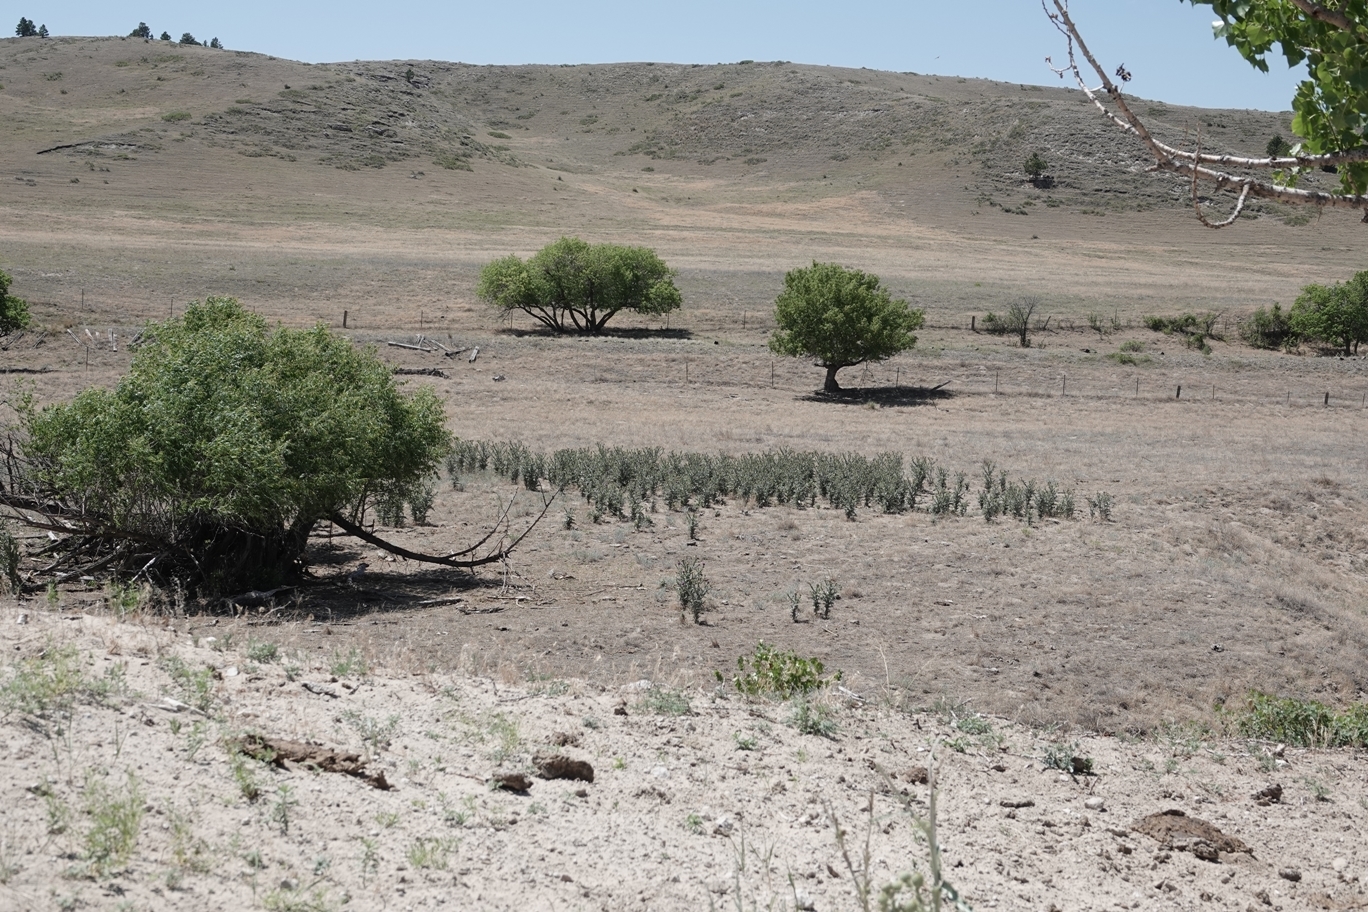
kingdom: Plantae
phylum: Tracheophyta
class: Magnoliopsida
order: Asterales
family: Asteraceae
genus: Onopordum
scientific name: Onopordum acanthium
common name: Scotch thistle
